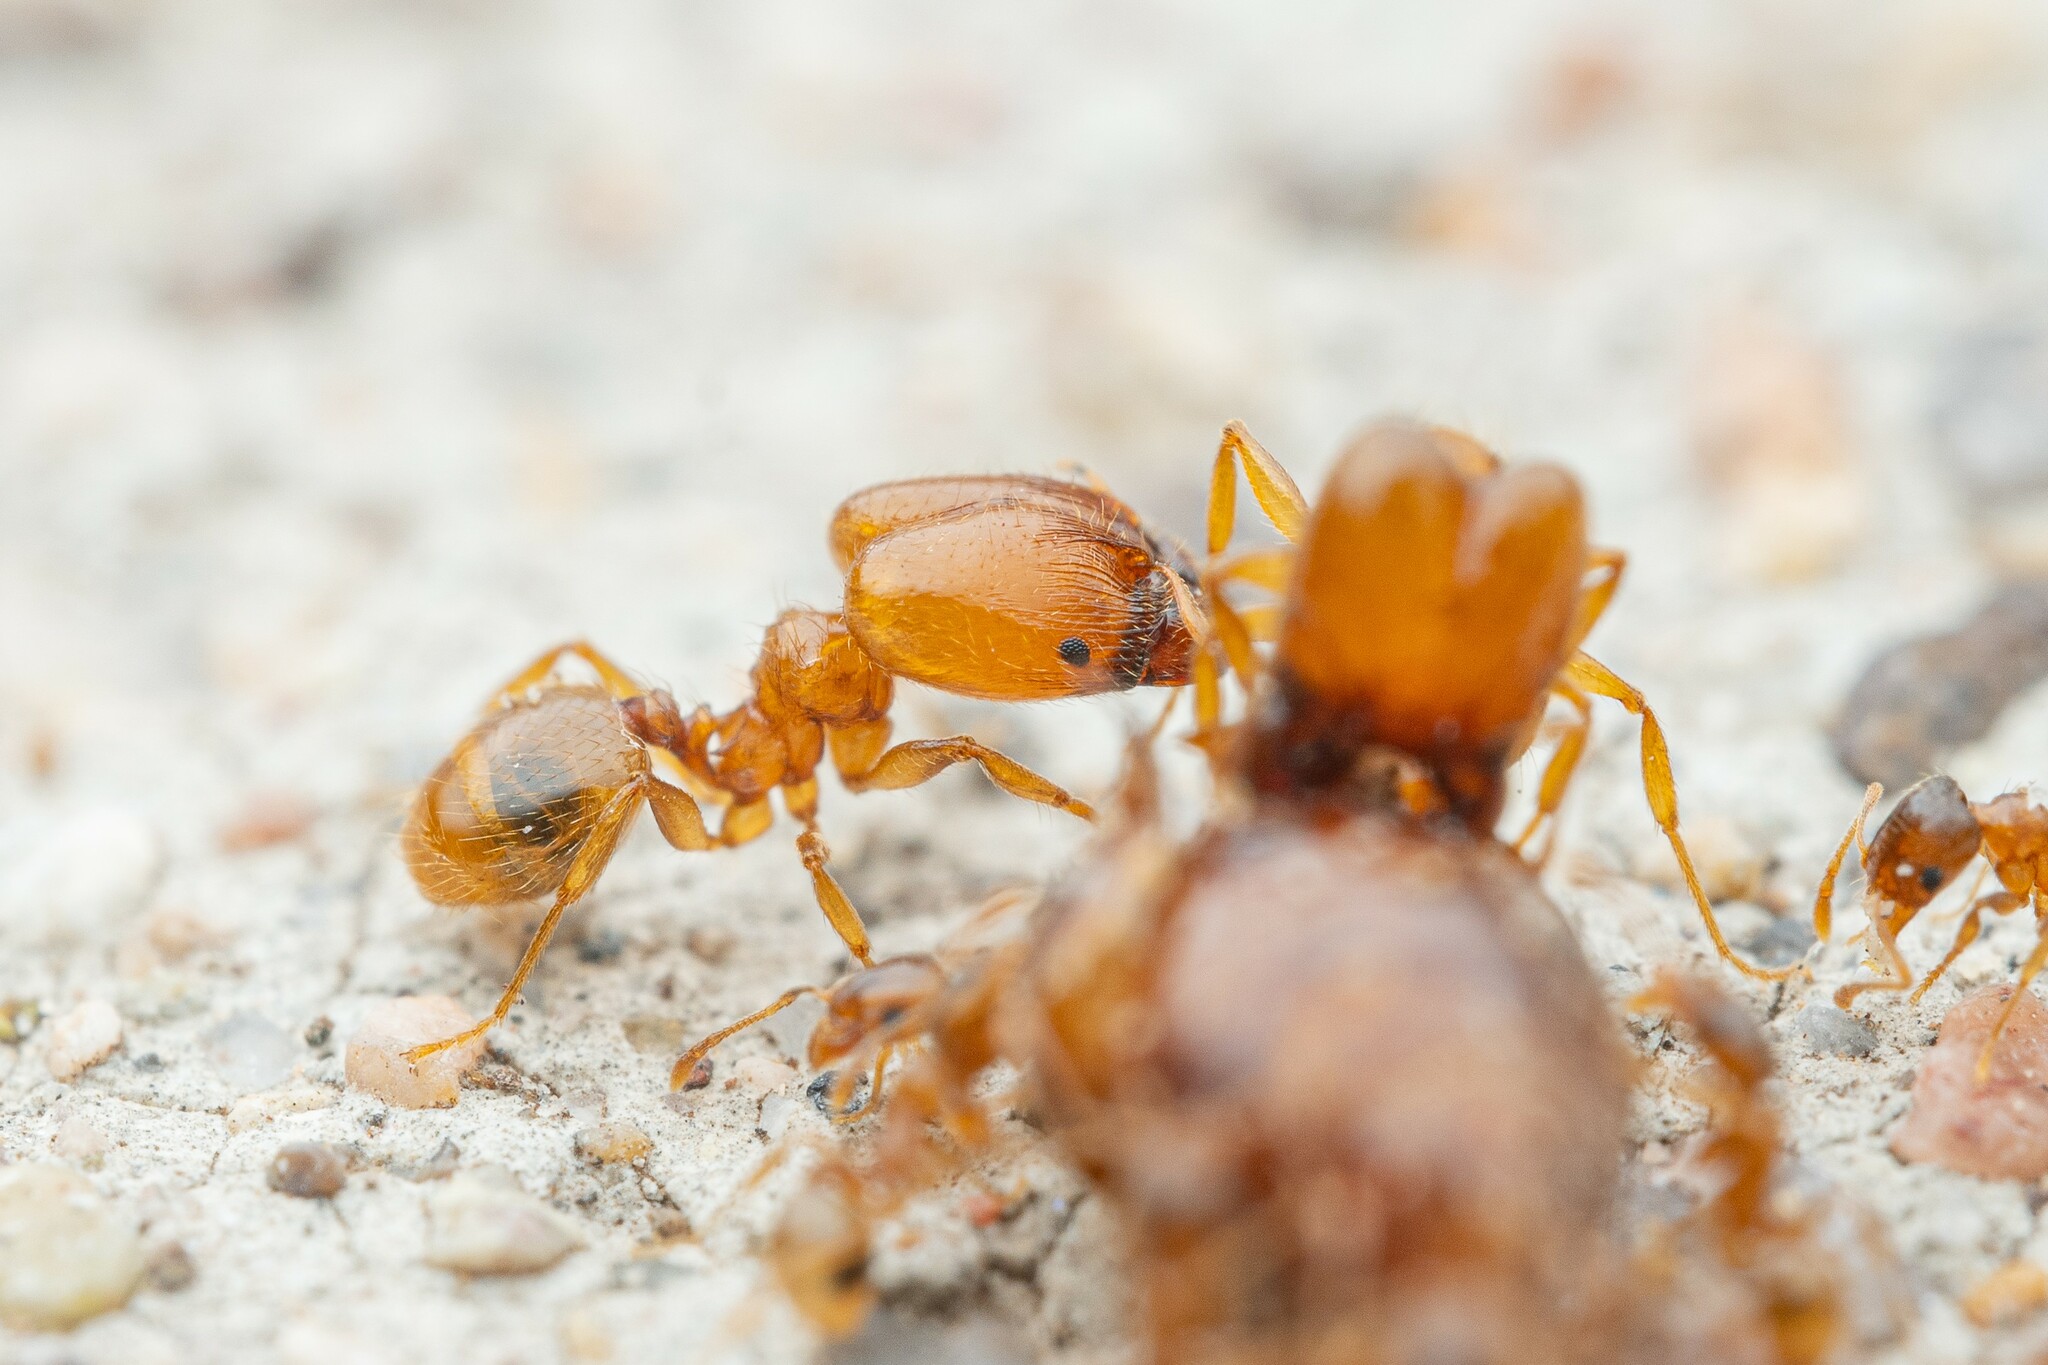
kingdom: Animalia
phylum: Arthropoda
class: Insecta
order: Hymenoptera
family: Formicidae
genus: Pheidole
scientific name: Pheidole cerebrosior
